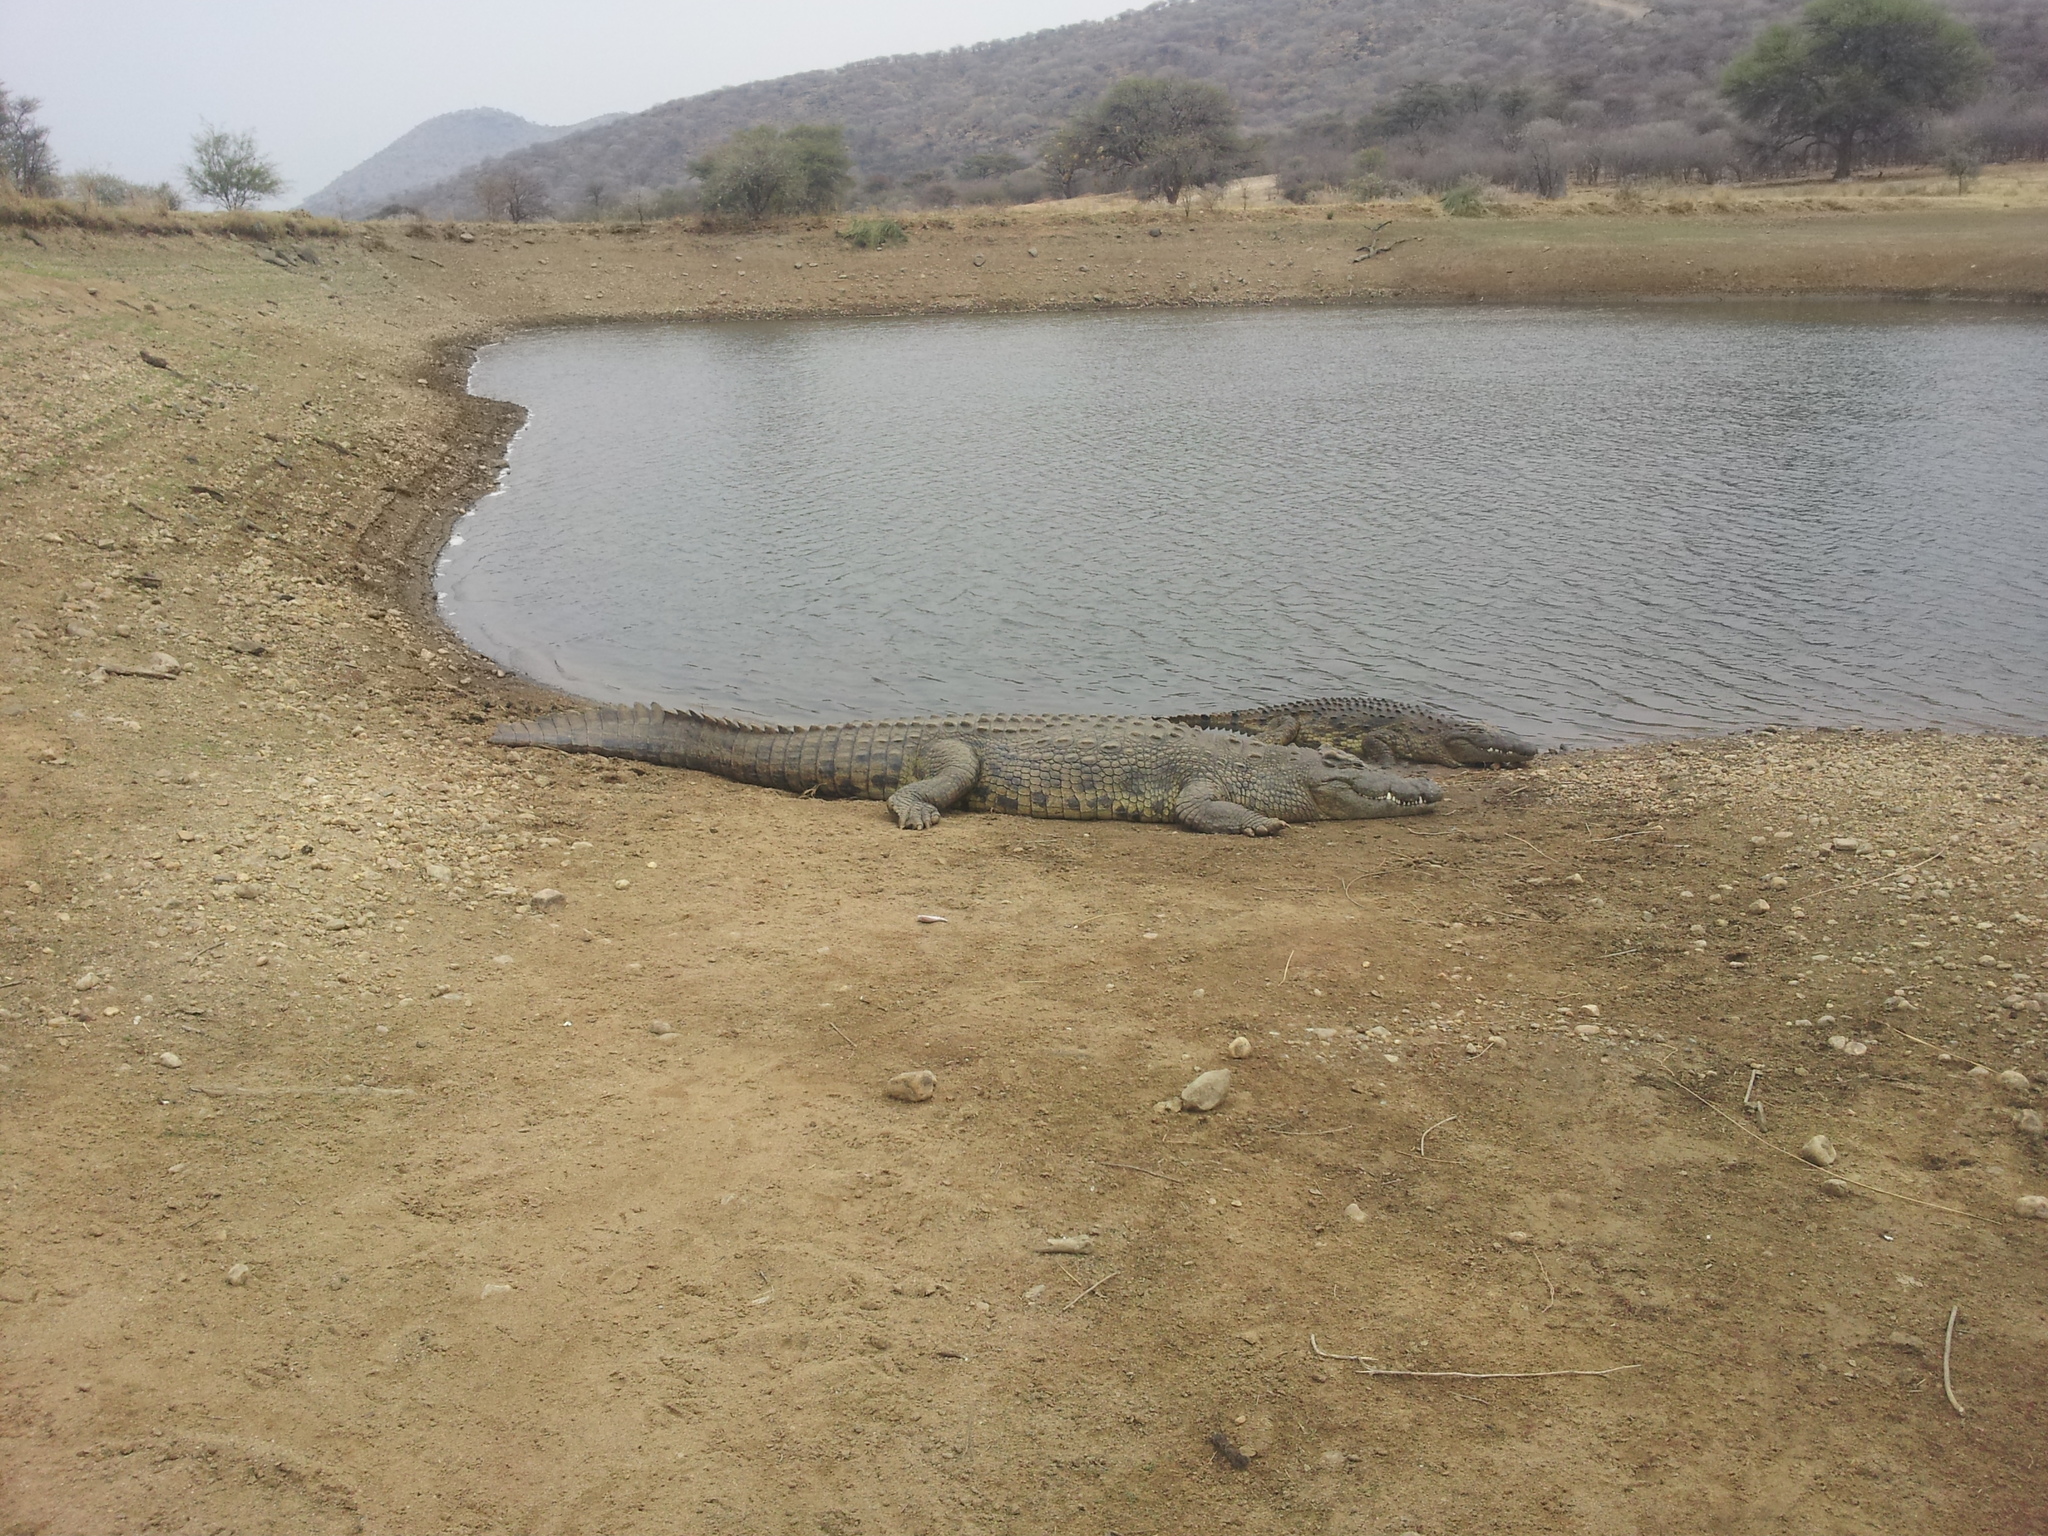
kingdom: Animalia
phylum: Chordata
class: Crocodylia
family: Crocodylidae
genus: Crocodylus
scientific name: Crocodylus niloticus
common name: Nile crocodile
